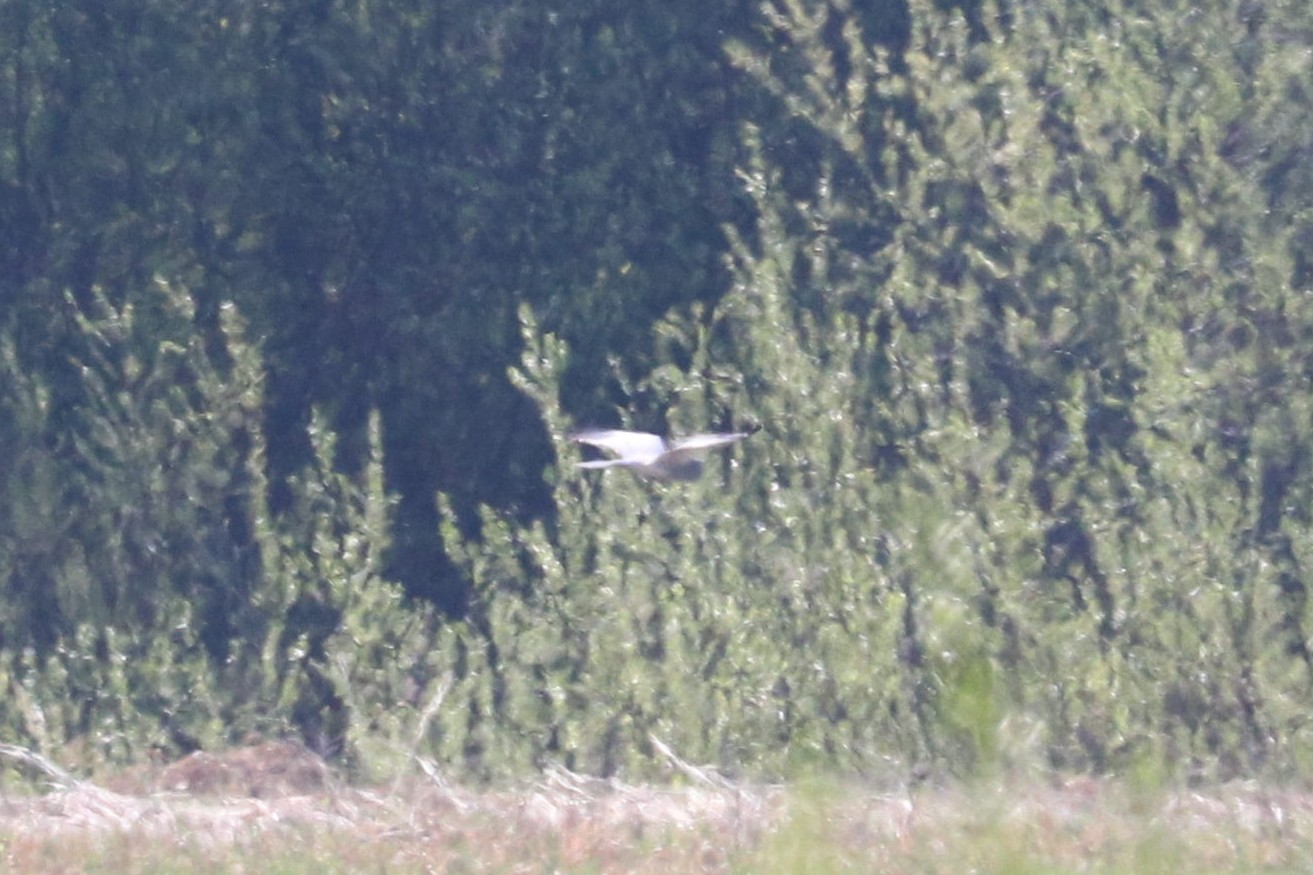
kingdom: Animalia
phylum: Chordata
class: Aves
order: Accipitriformes
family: Accipitridae
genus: Circus
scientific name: Circus pygargus
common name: Montagu's harrier
